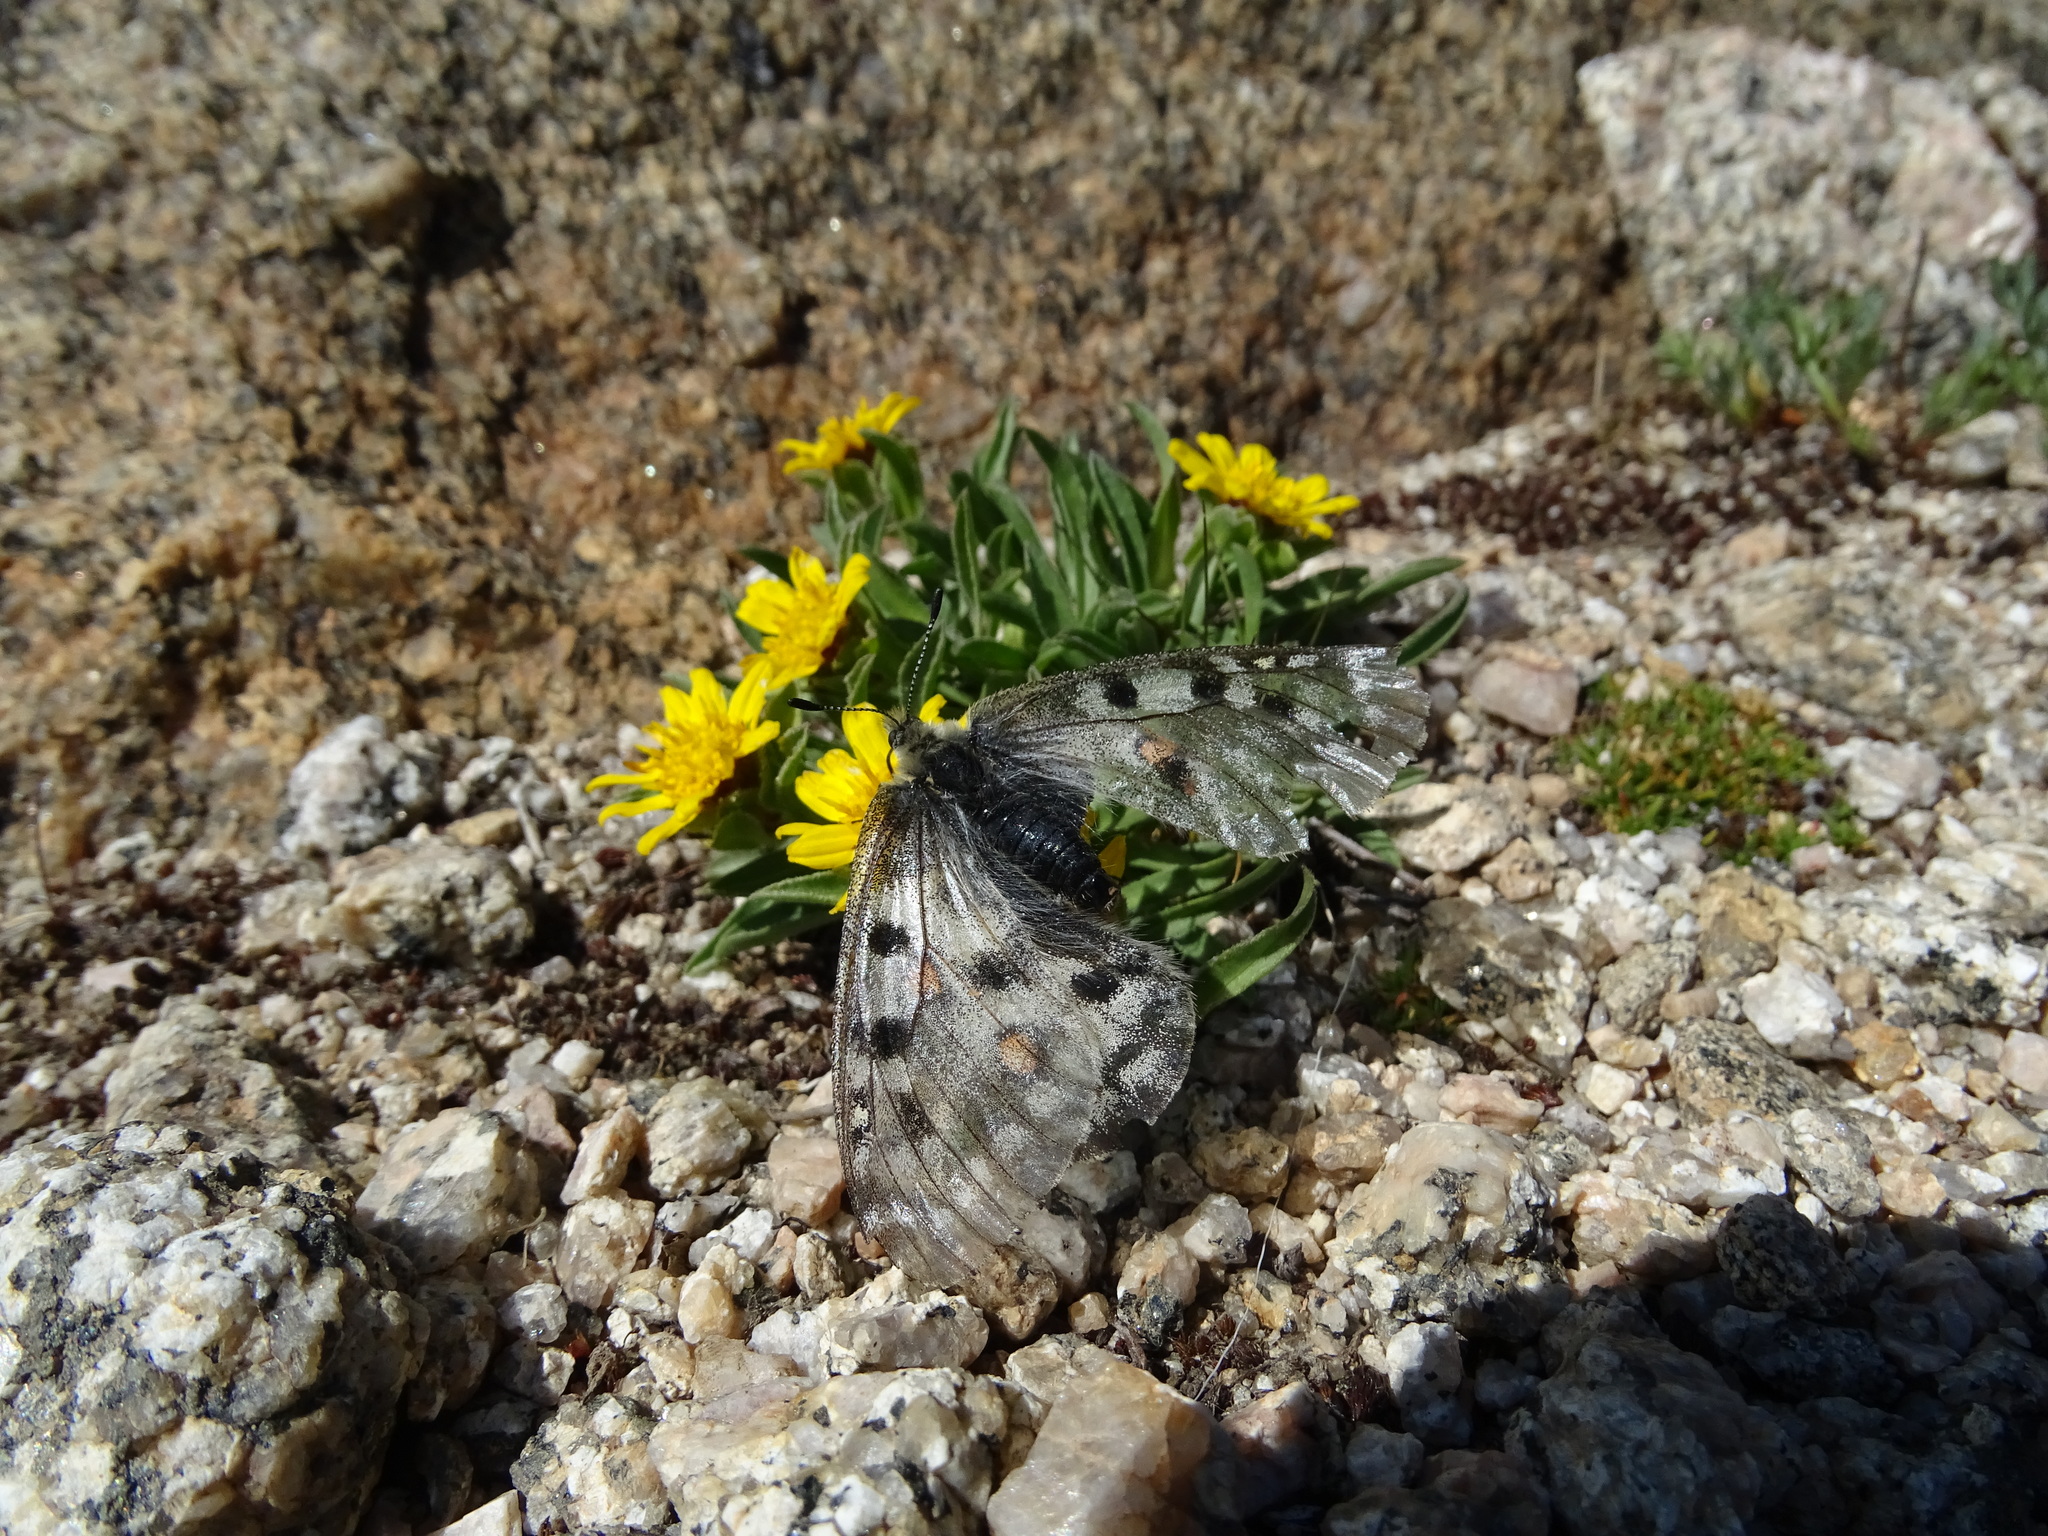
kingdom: Animalia
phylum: Arthropoda
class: Insecta
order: Lepidoptera
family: Papilionidae
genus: Parnassius
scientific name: Parnassius smintheus
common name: Mountain parnassian
